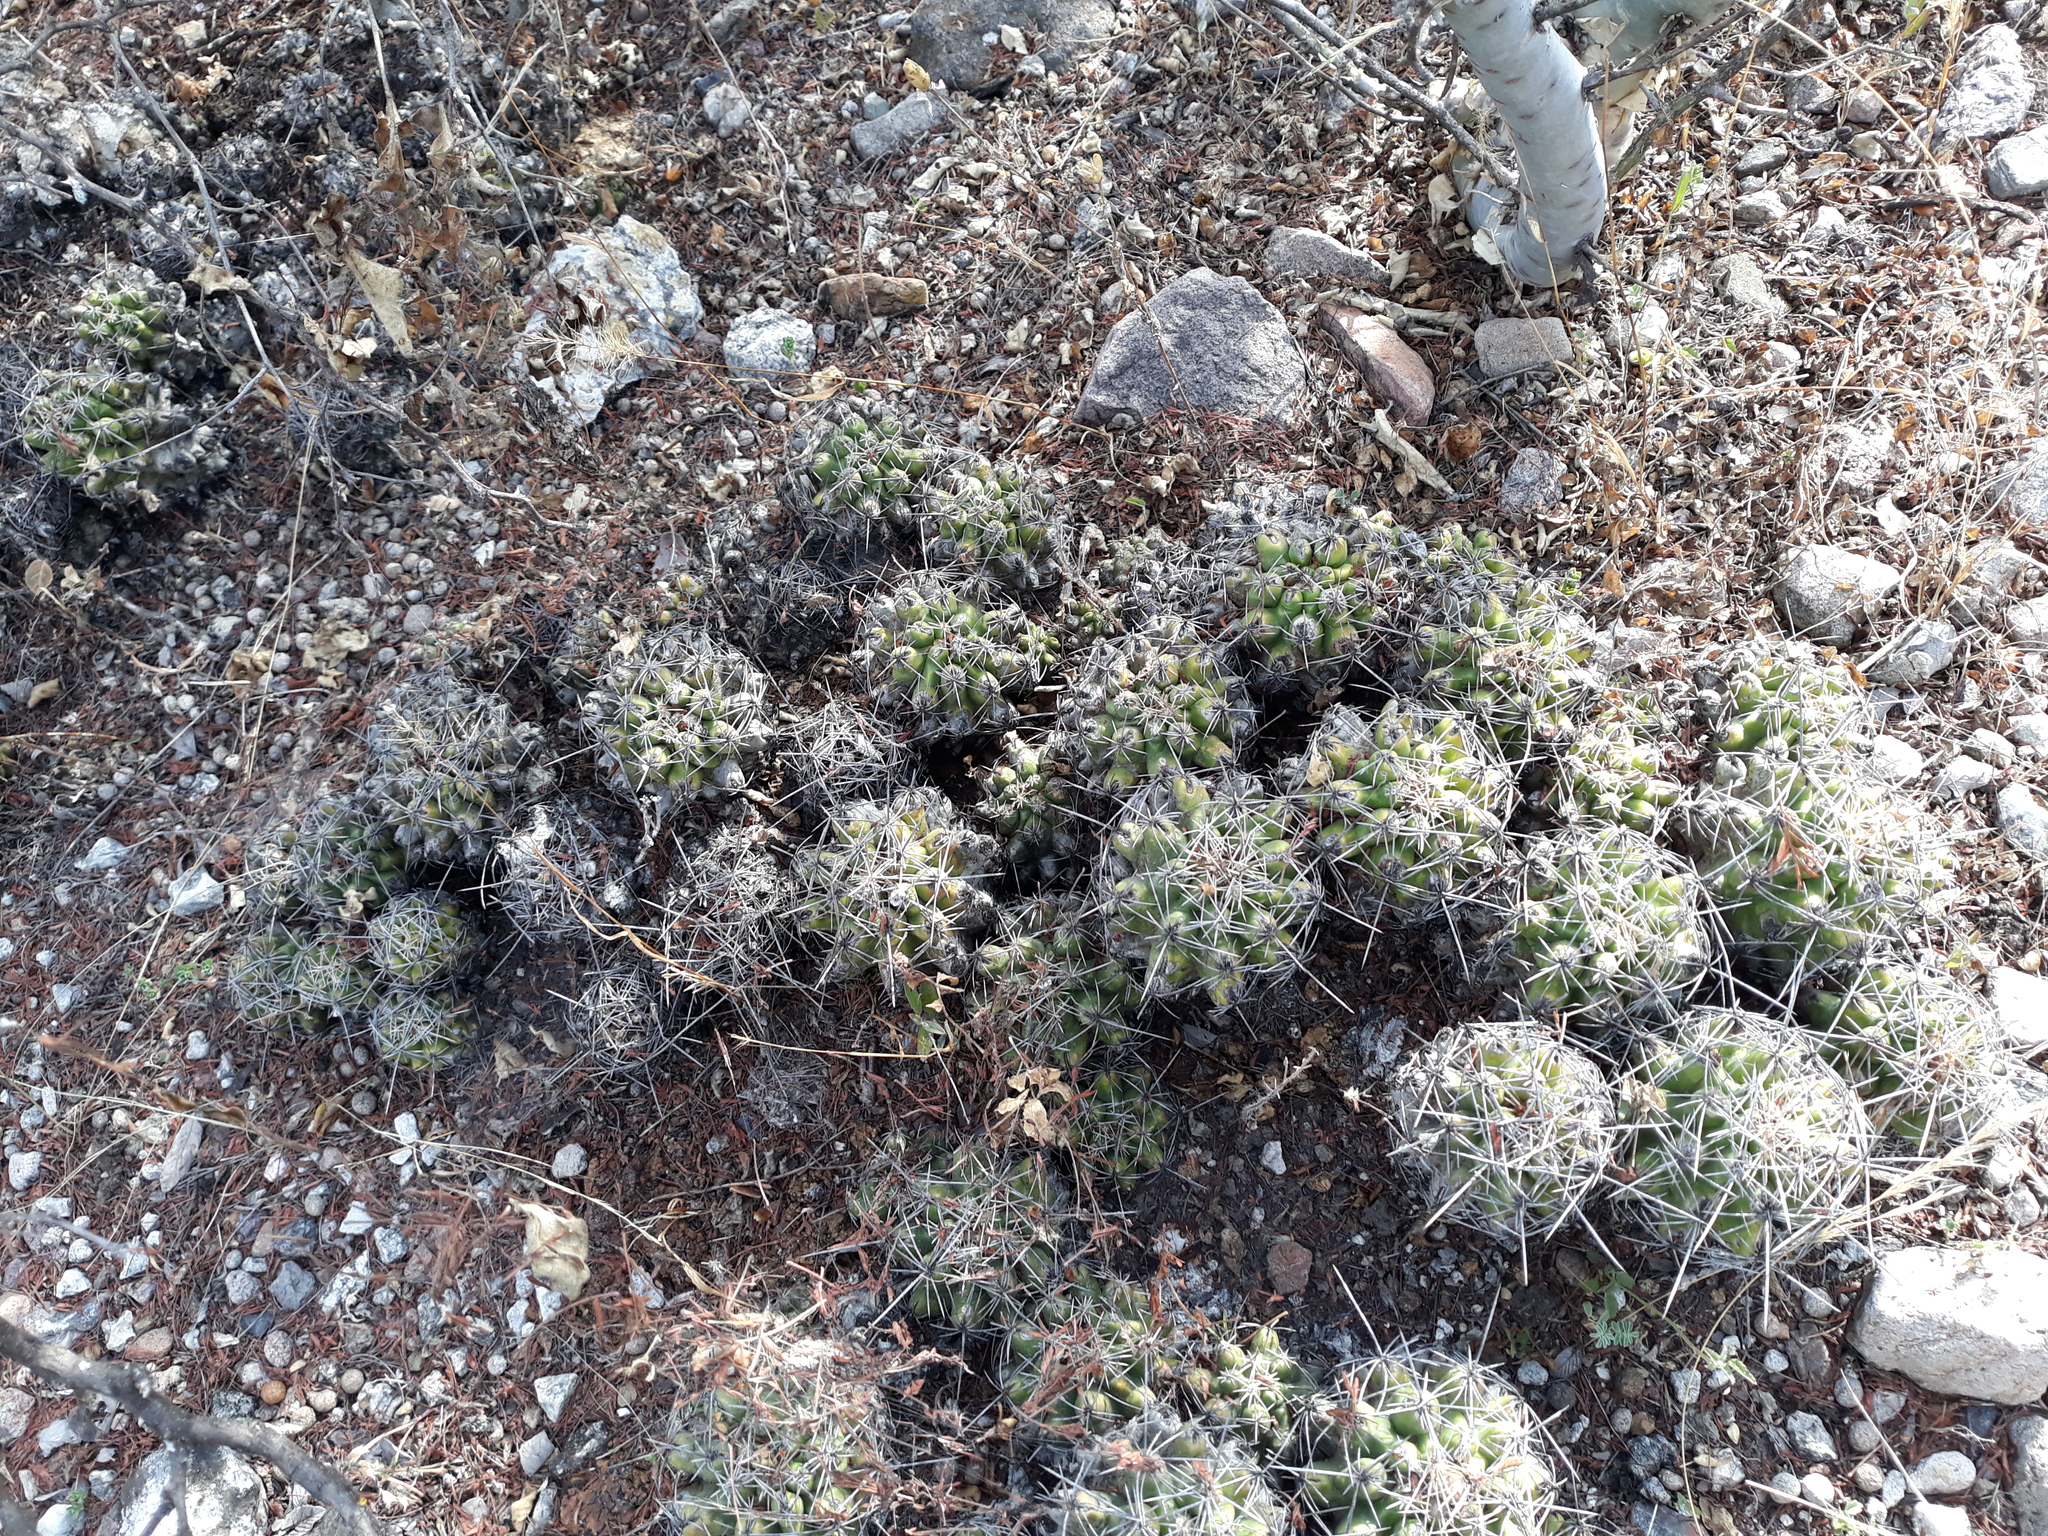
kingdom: Plantae
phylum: Tracheophyta
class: Magnoliopsida
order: Caryophyllales
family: Cactaceae
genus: Thelocactus
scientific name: Thelocactus leucacanthus
